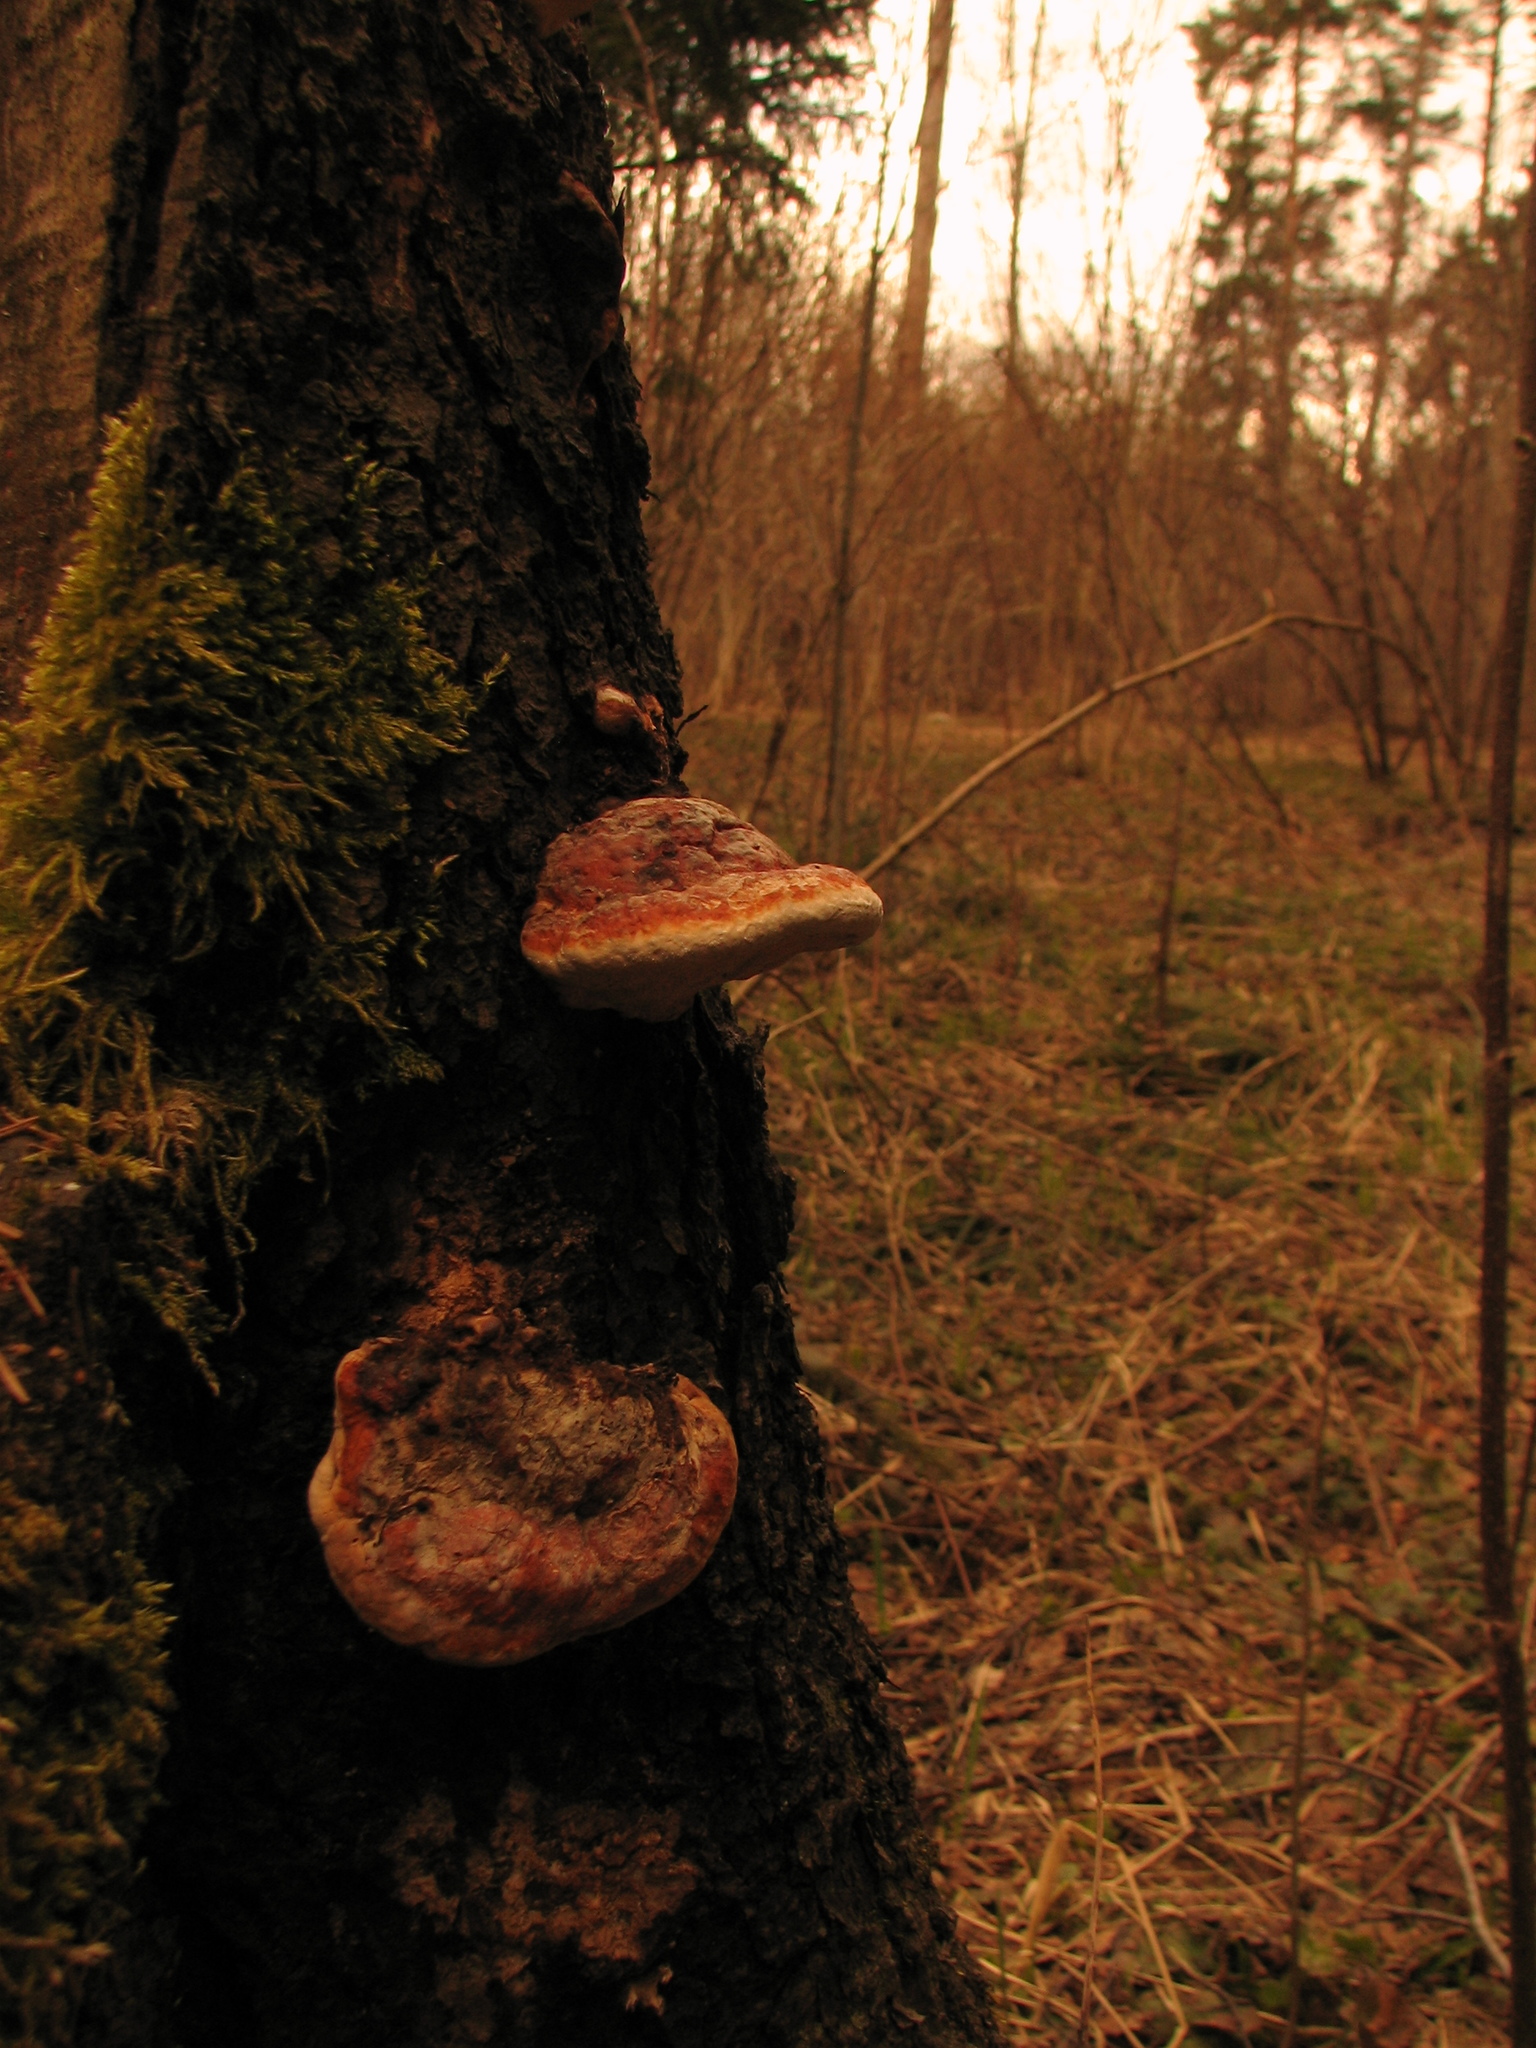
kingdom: Fungi
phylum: Basidiomycota
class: Agaricomycetes
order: Polyporales
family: Fomitopsidaceae
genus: Fomitopsis
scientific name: Fomitopsis pinicola
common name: Red-belted bracket
